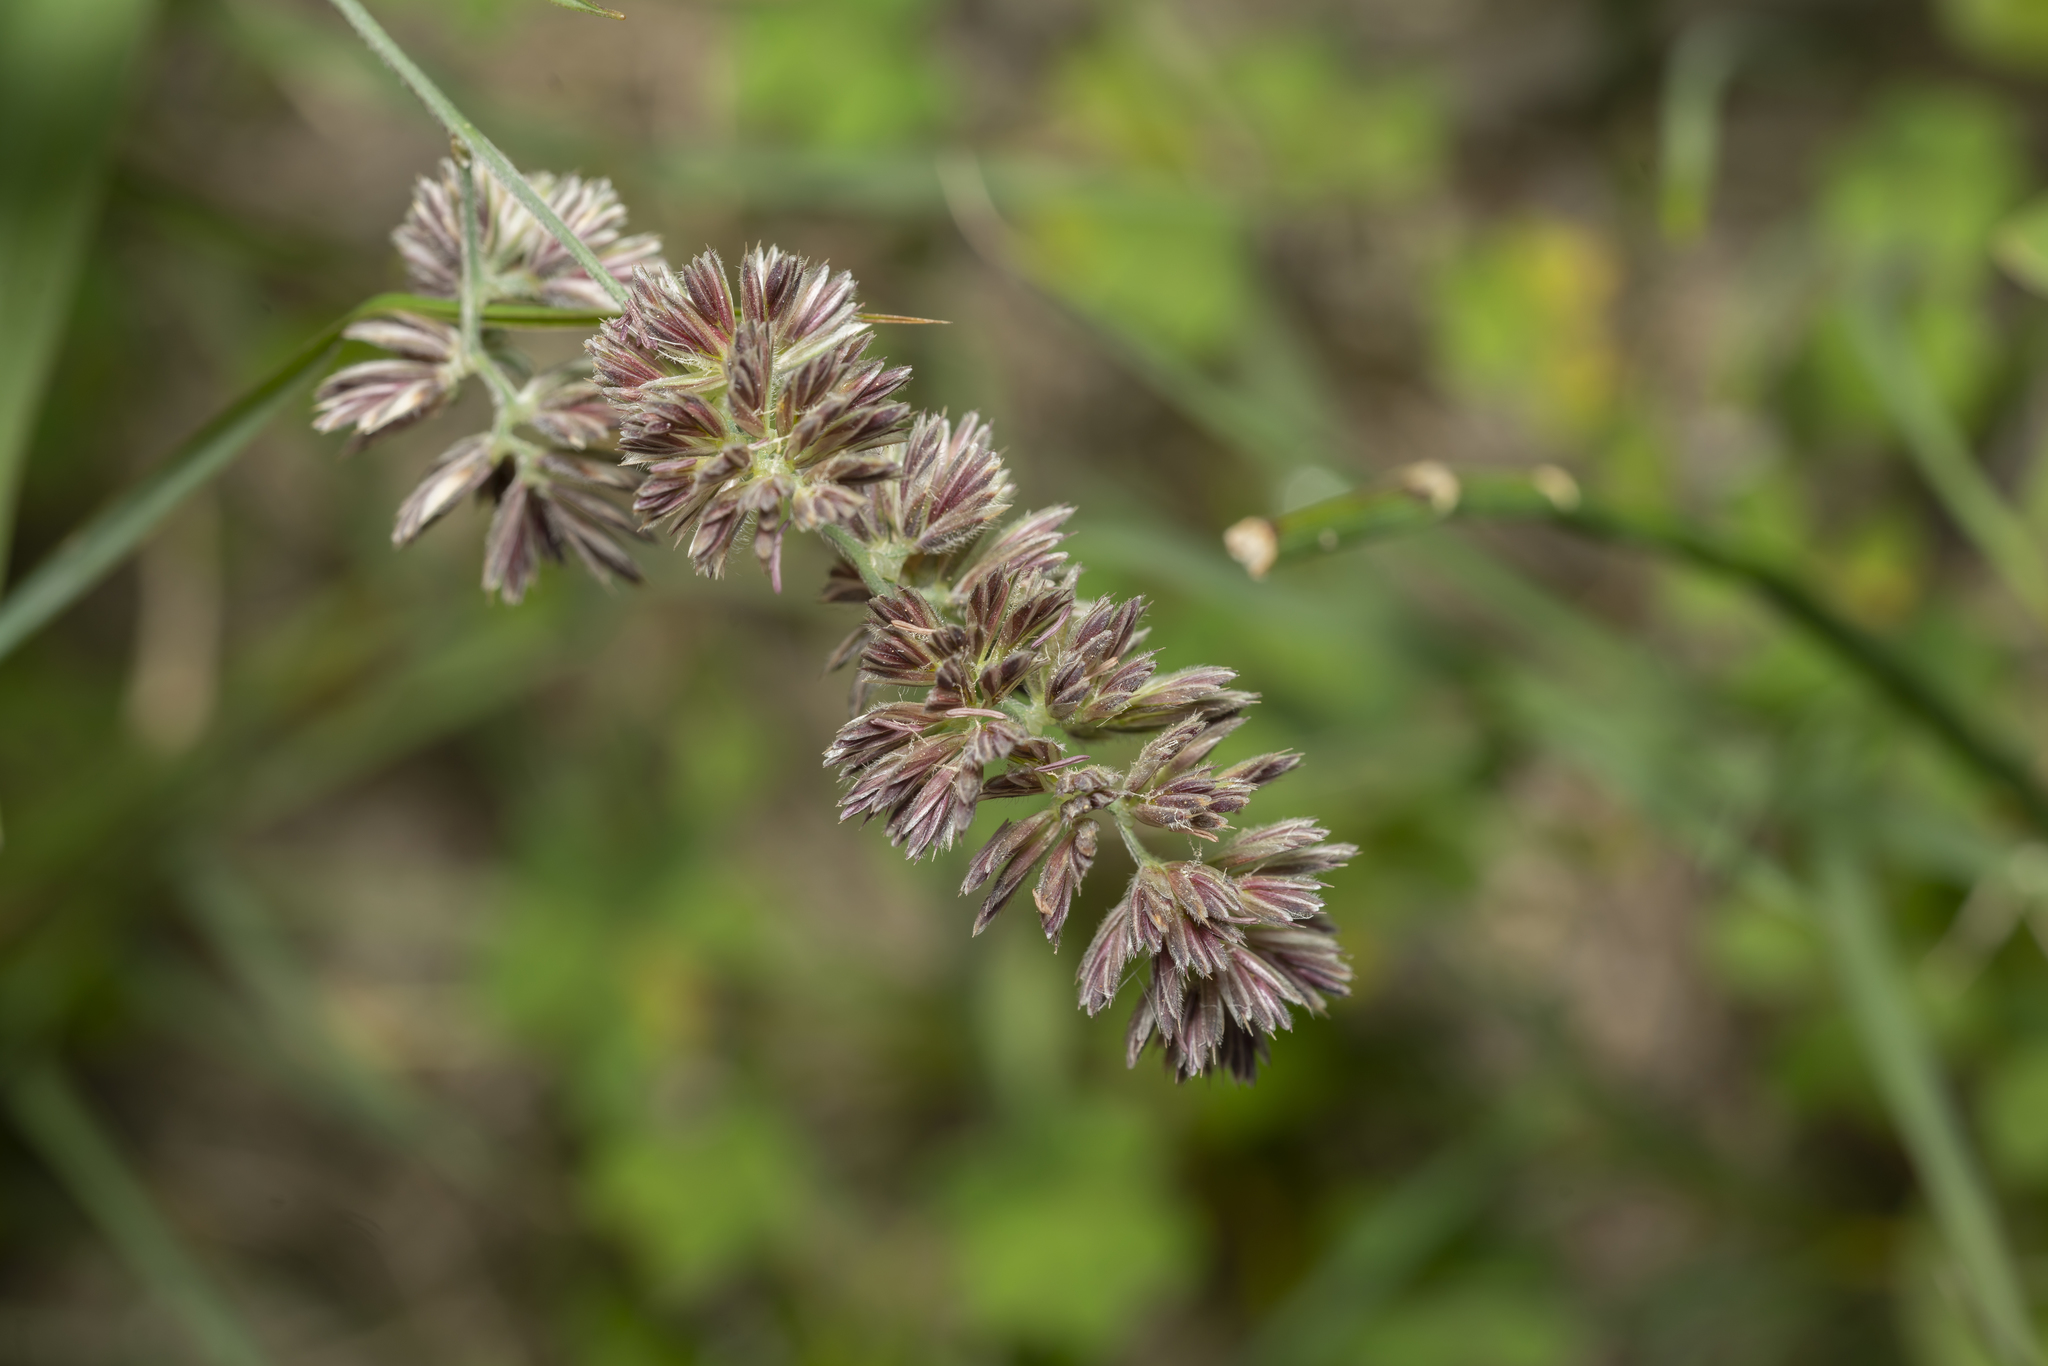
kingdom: Plantae
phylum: Tracheophyta
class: Liliopsida
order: Poales
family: Poaceae
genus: Dactylis
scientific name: Dactylis glomerata
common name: Orchardgrass
